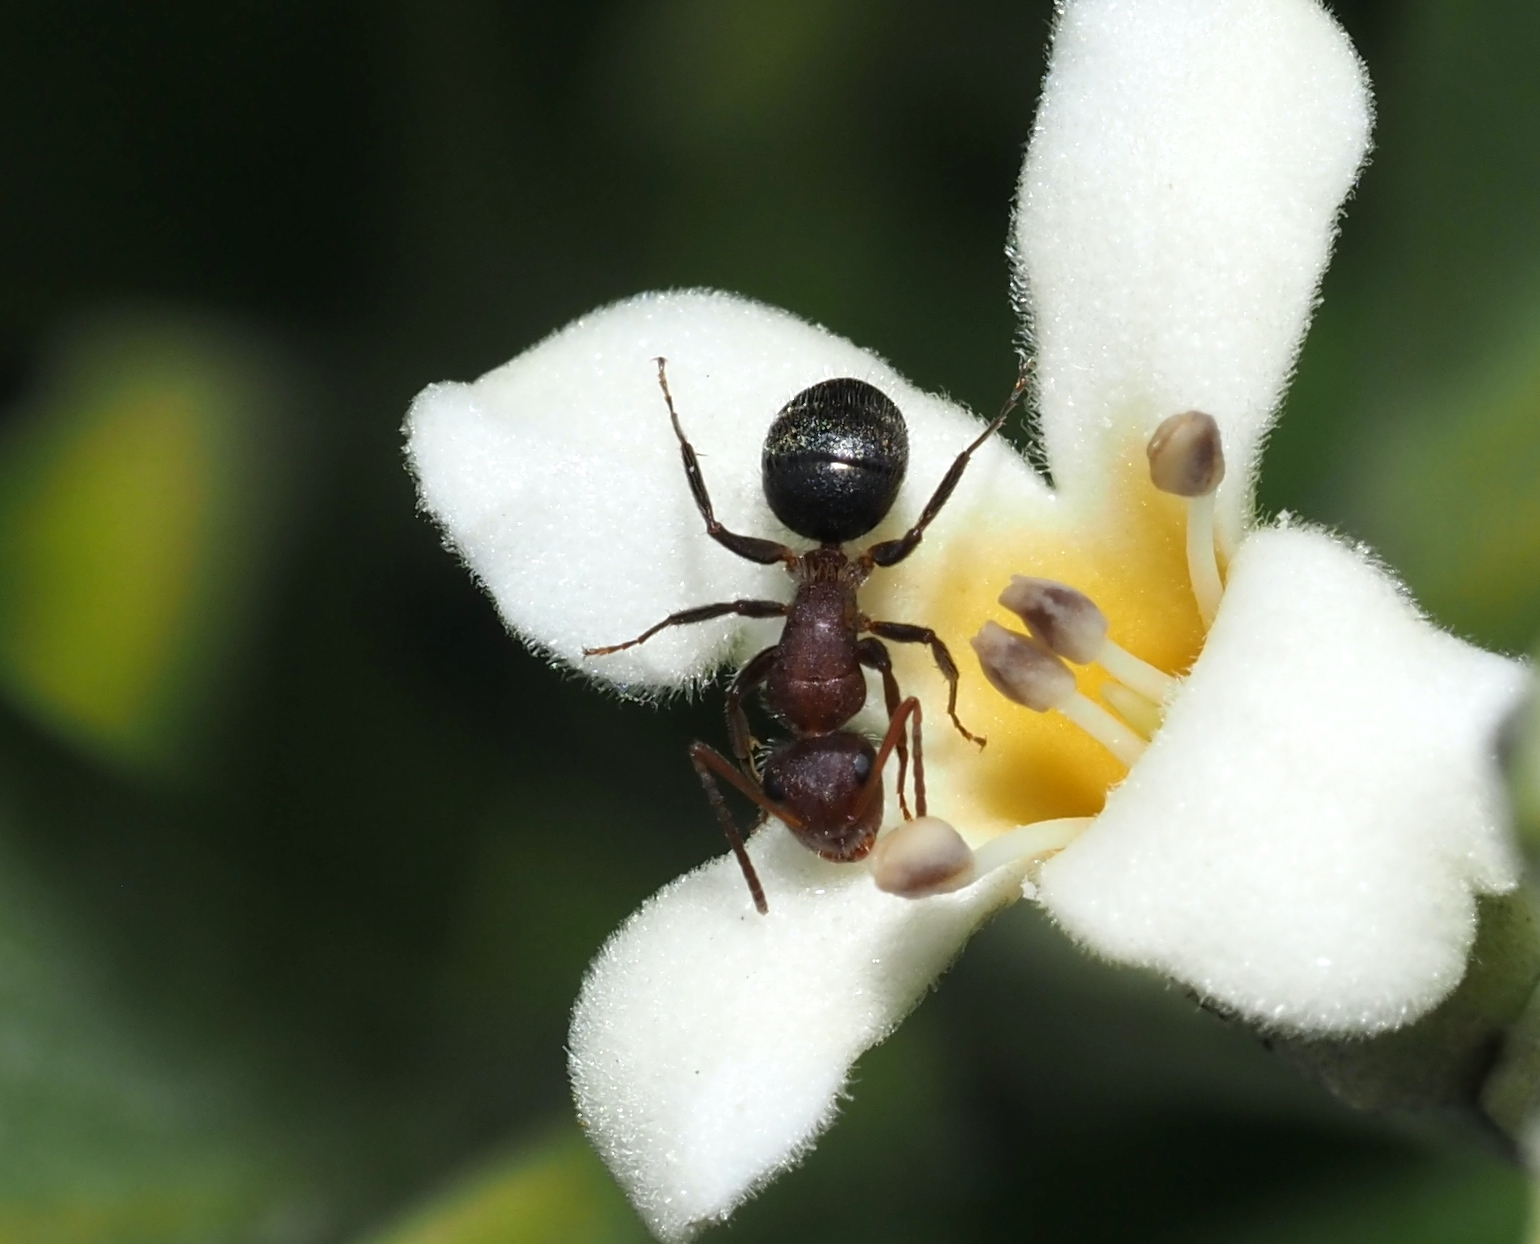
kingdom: Animalia
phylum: Arthropoda
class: Insecta
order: Hymenoptera
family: Formicidae
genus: Camponotus
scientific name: Camponotus planatus
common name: Compact carpenter ant
